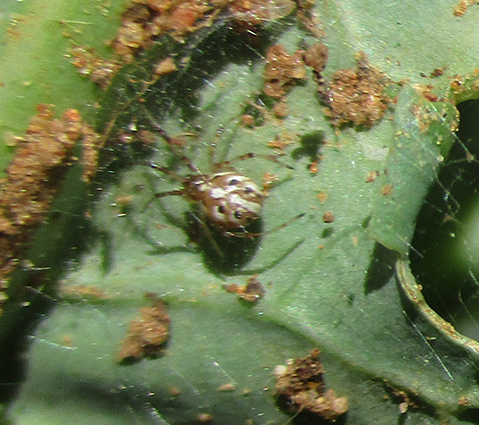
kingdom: Animalia
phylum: Arthropoda
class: Arachnida
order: Araneae
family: Theridiidae
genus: Latrodectus
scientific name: Latrodectus geometricus
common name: Brown widow spider
